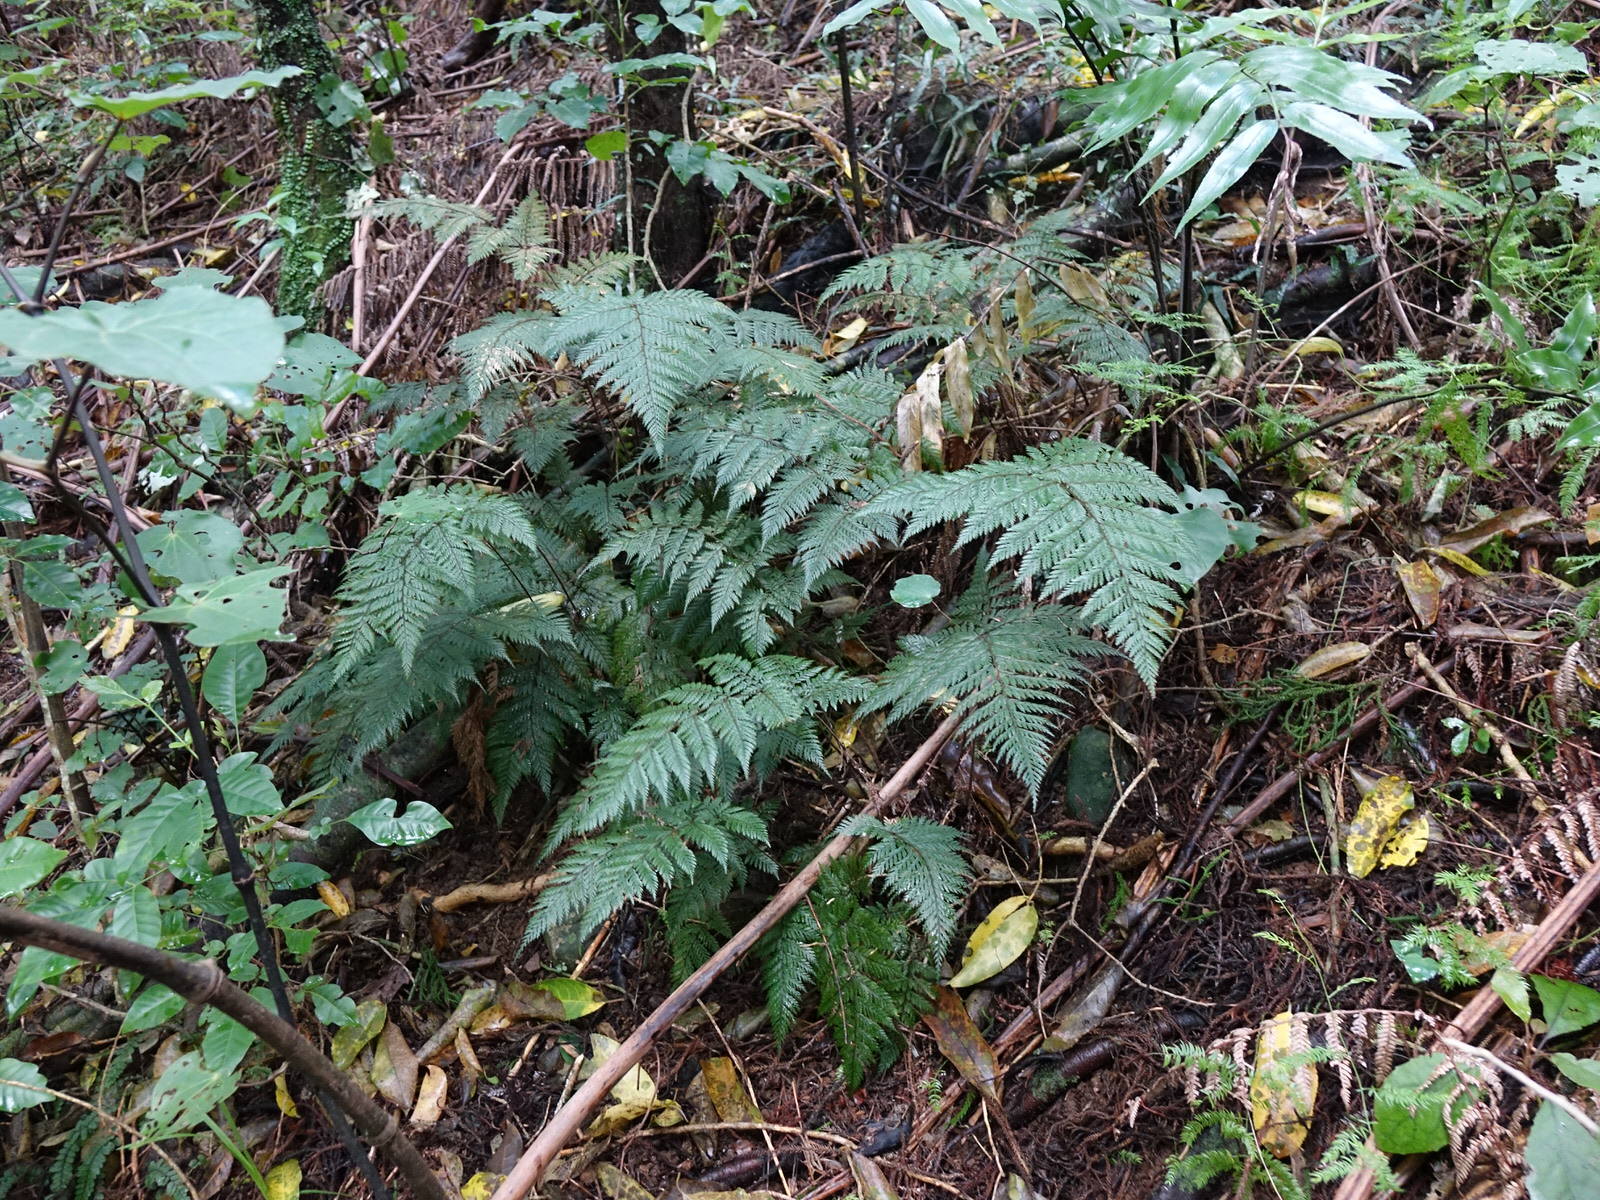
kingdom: Plantae
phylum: Tracheophyta
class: Polypodiopsida
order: Polypodiales
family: Dryopteridaceae
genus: Lastreopsis
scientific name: Lastreopsis hispida
